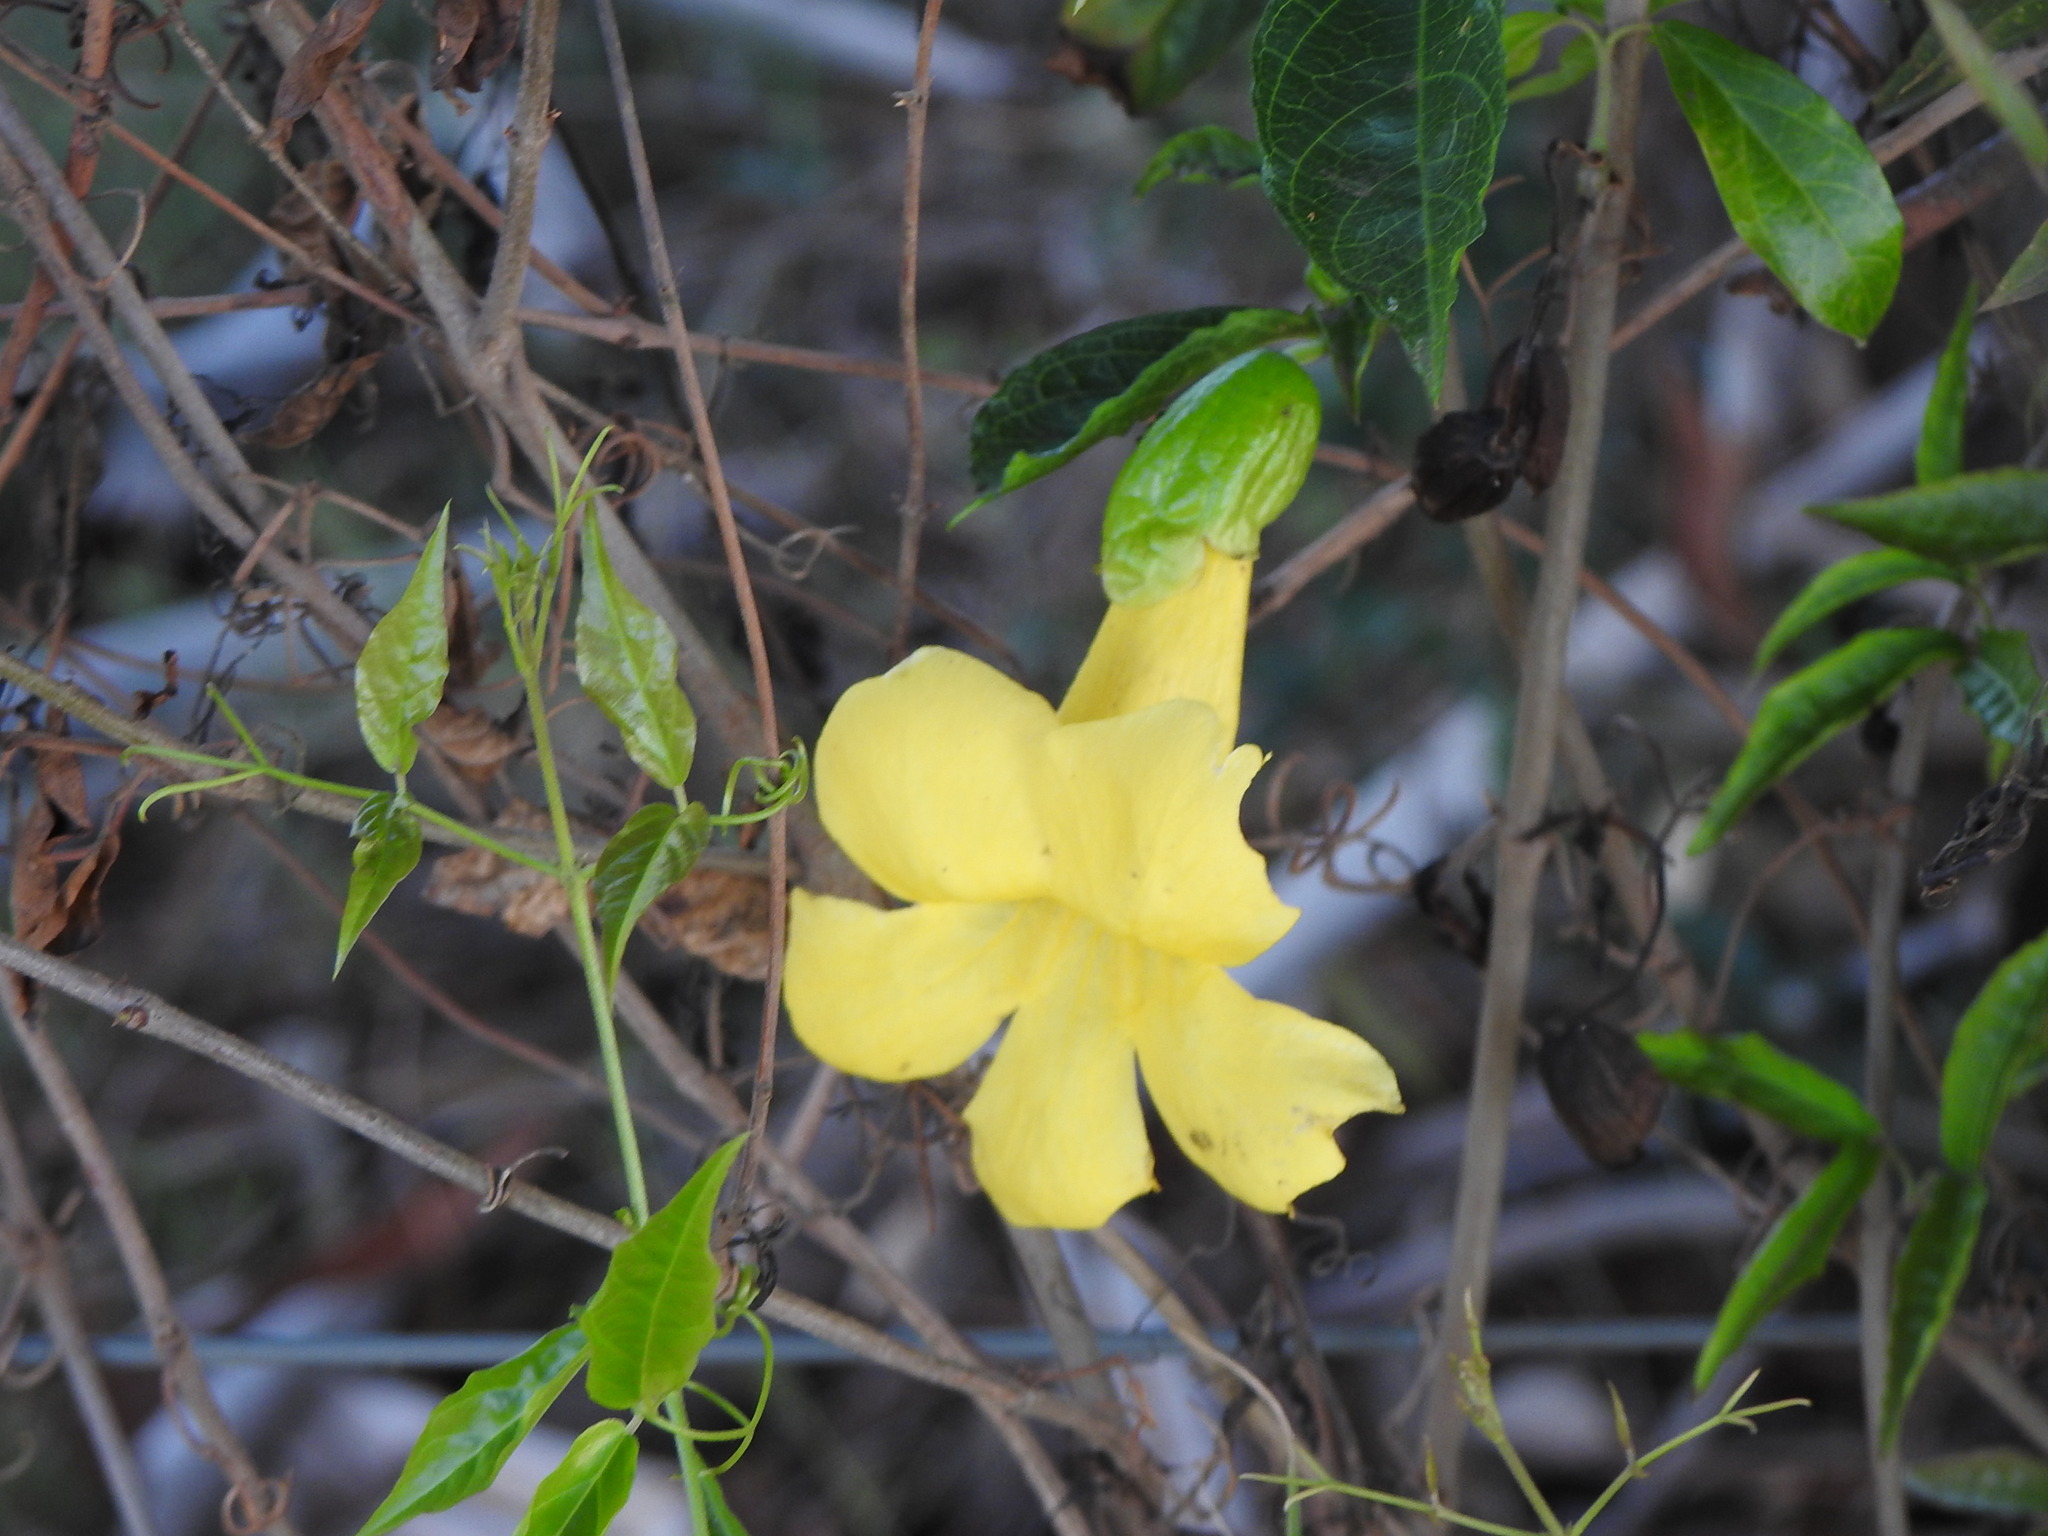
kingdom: Plantae
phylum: Tracheophyta
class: Magnoliopsida
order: Lamiales
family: Bignoniaceae
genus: Dolichandra
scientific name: Dolichandra unguis-cati
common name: Catclaw vine
